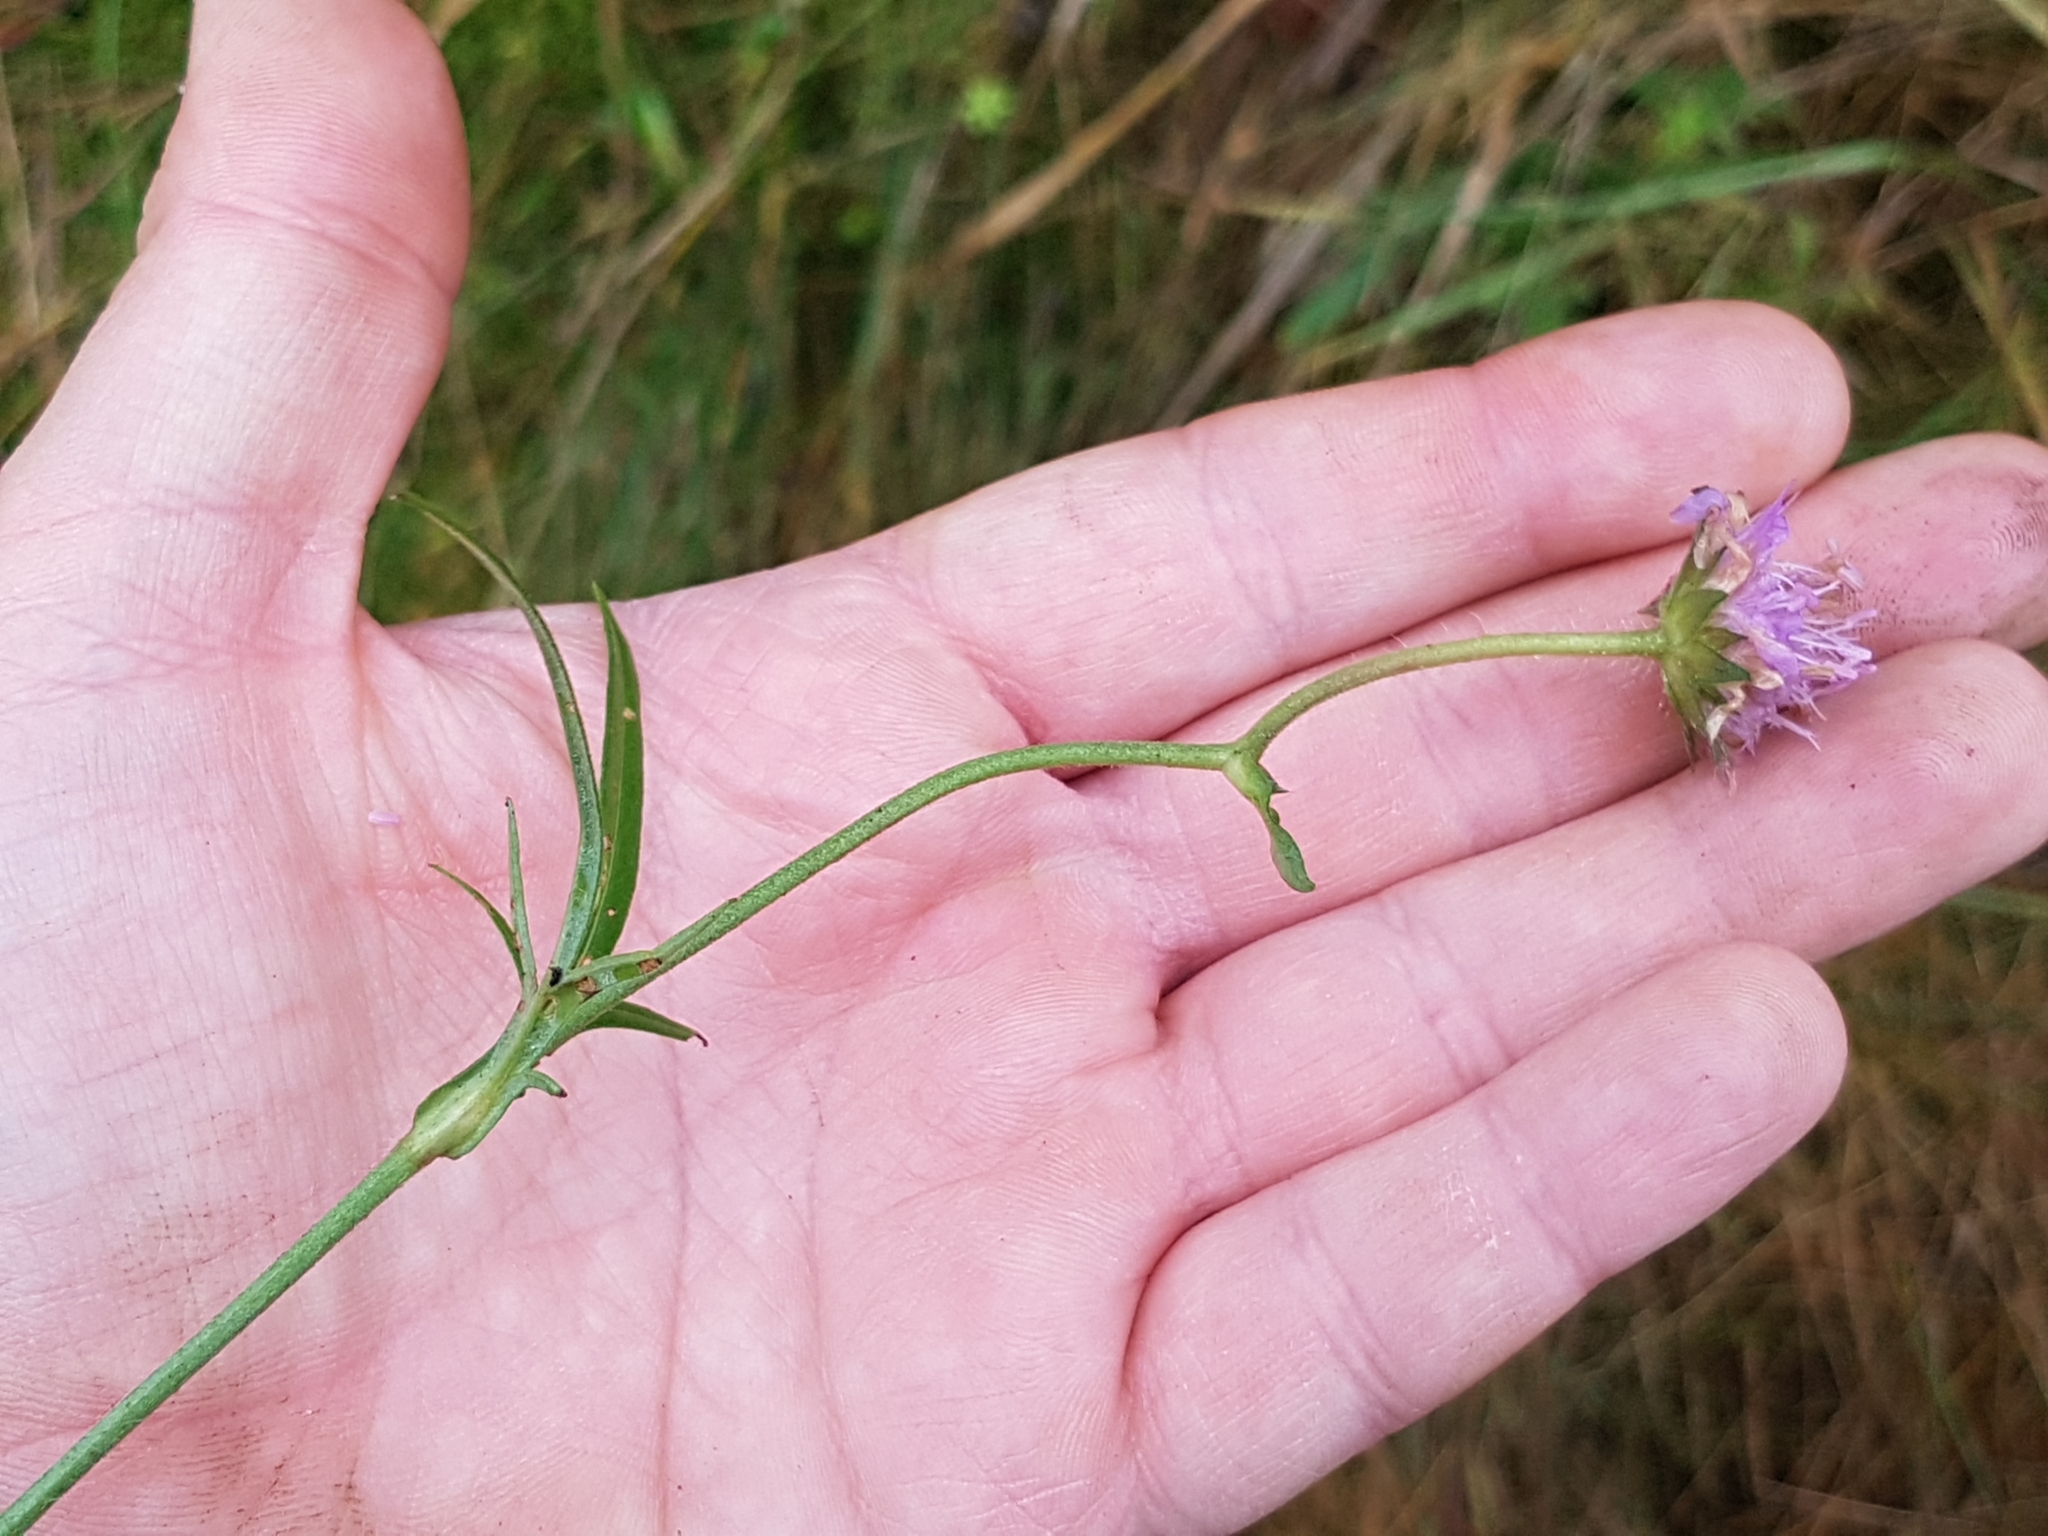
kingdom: Plantae
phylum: Tracheophyta
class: Magnoliopsida
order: Dipsacales
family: Caprifoliaceae
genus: Knautia
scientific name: Knautia arvensis
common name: Field scabiosa
